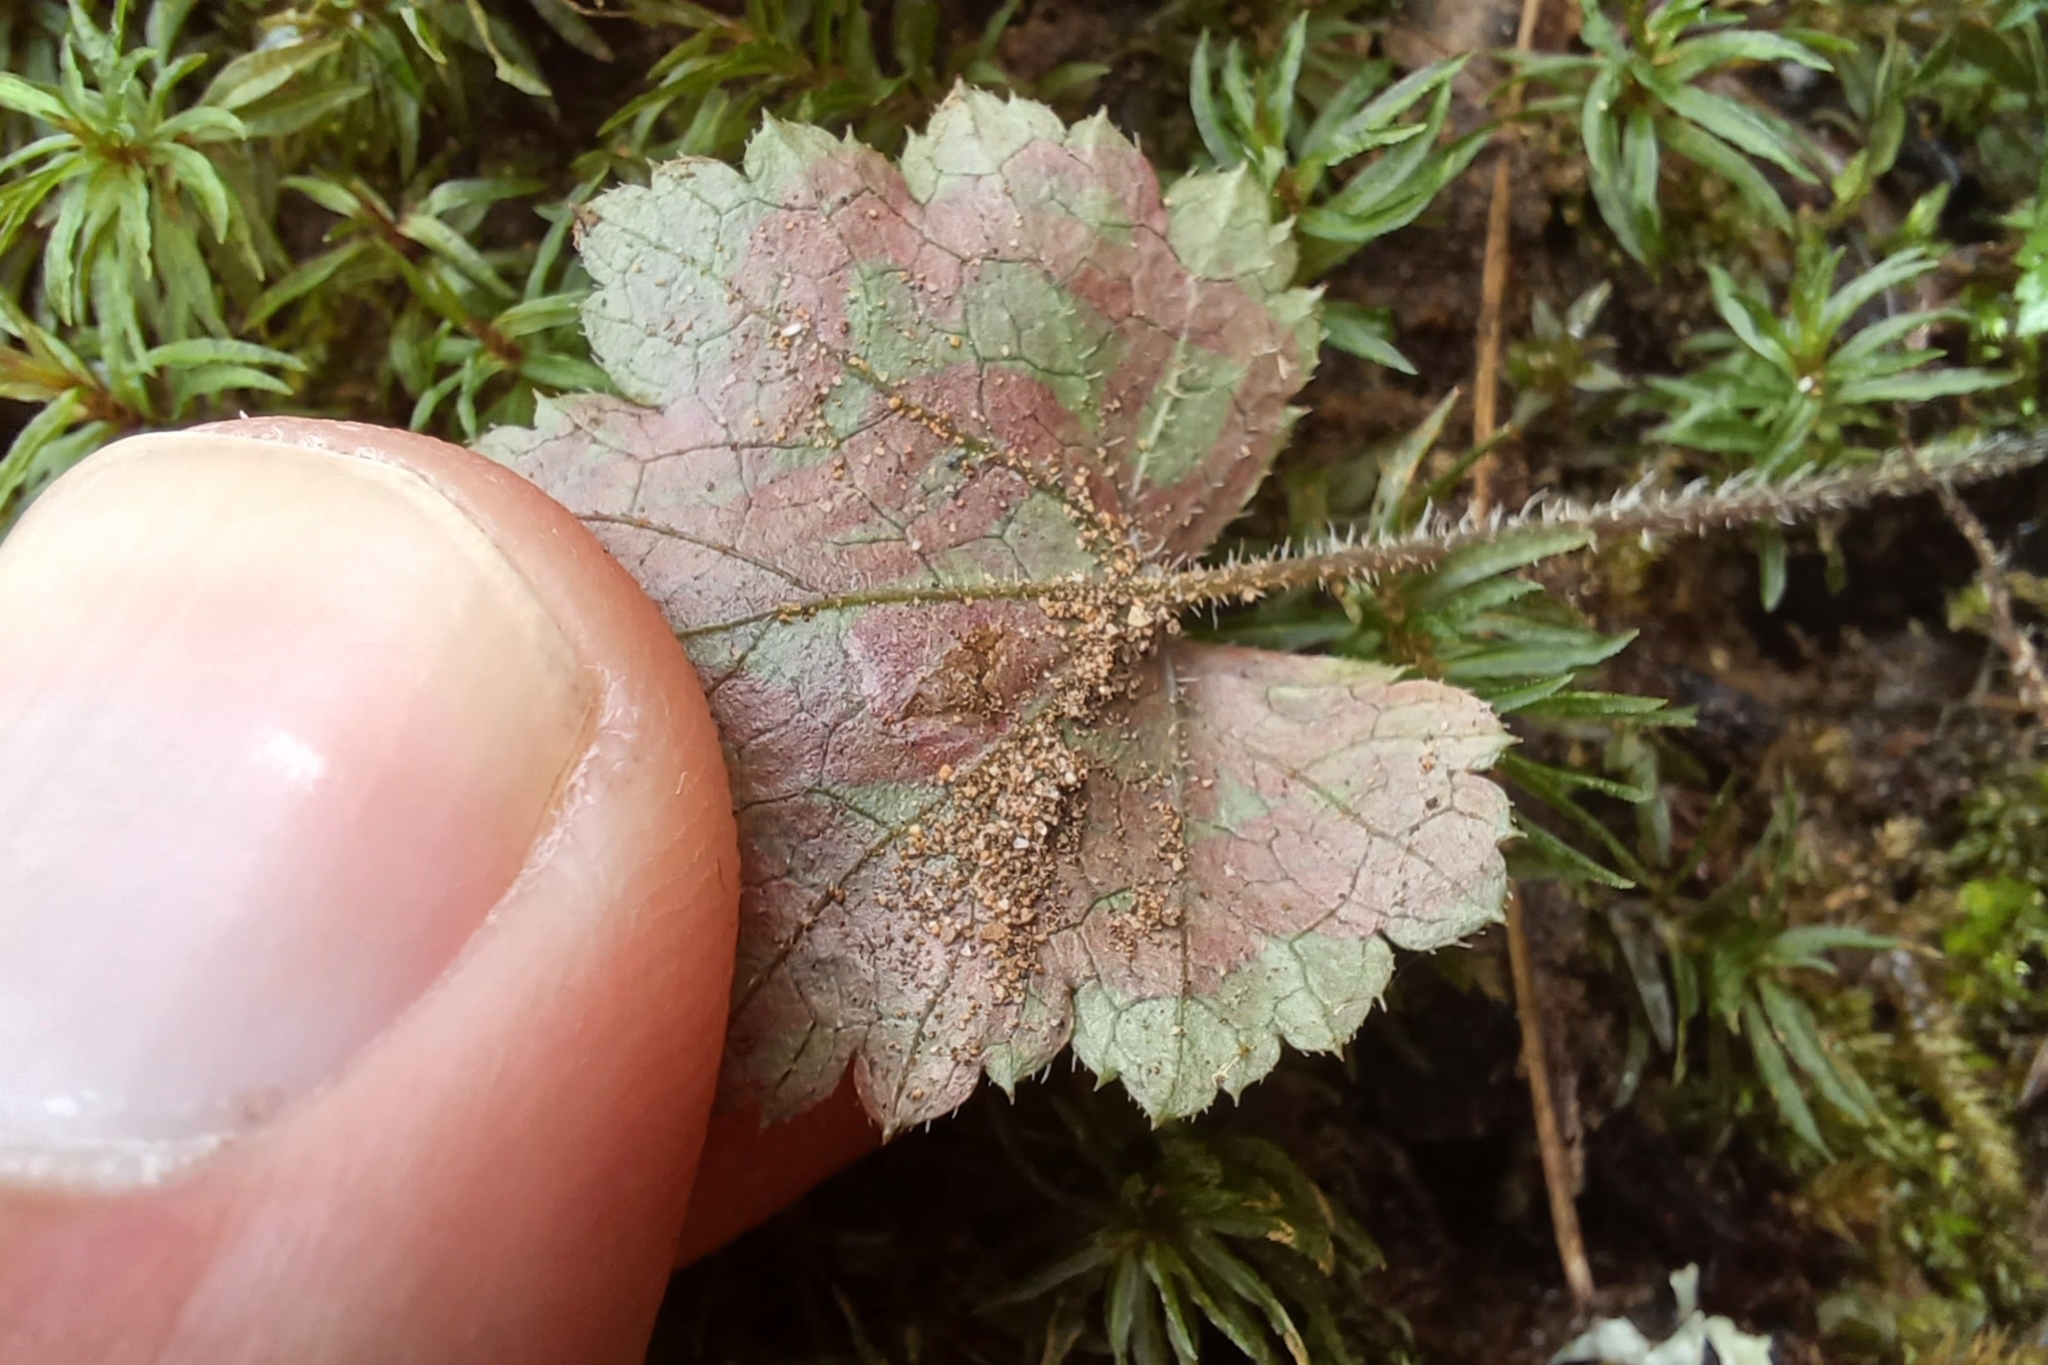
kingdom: Plantae
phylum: Tracheophyta
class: Magnoliopsida
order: Saxifragales
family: Saxifragaceae
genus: Tiarella
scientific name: Tiarella stolonifera
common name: Stoloniferous foamflower
